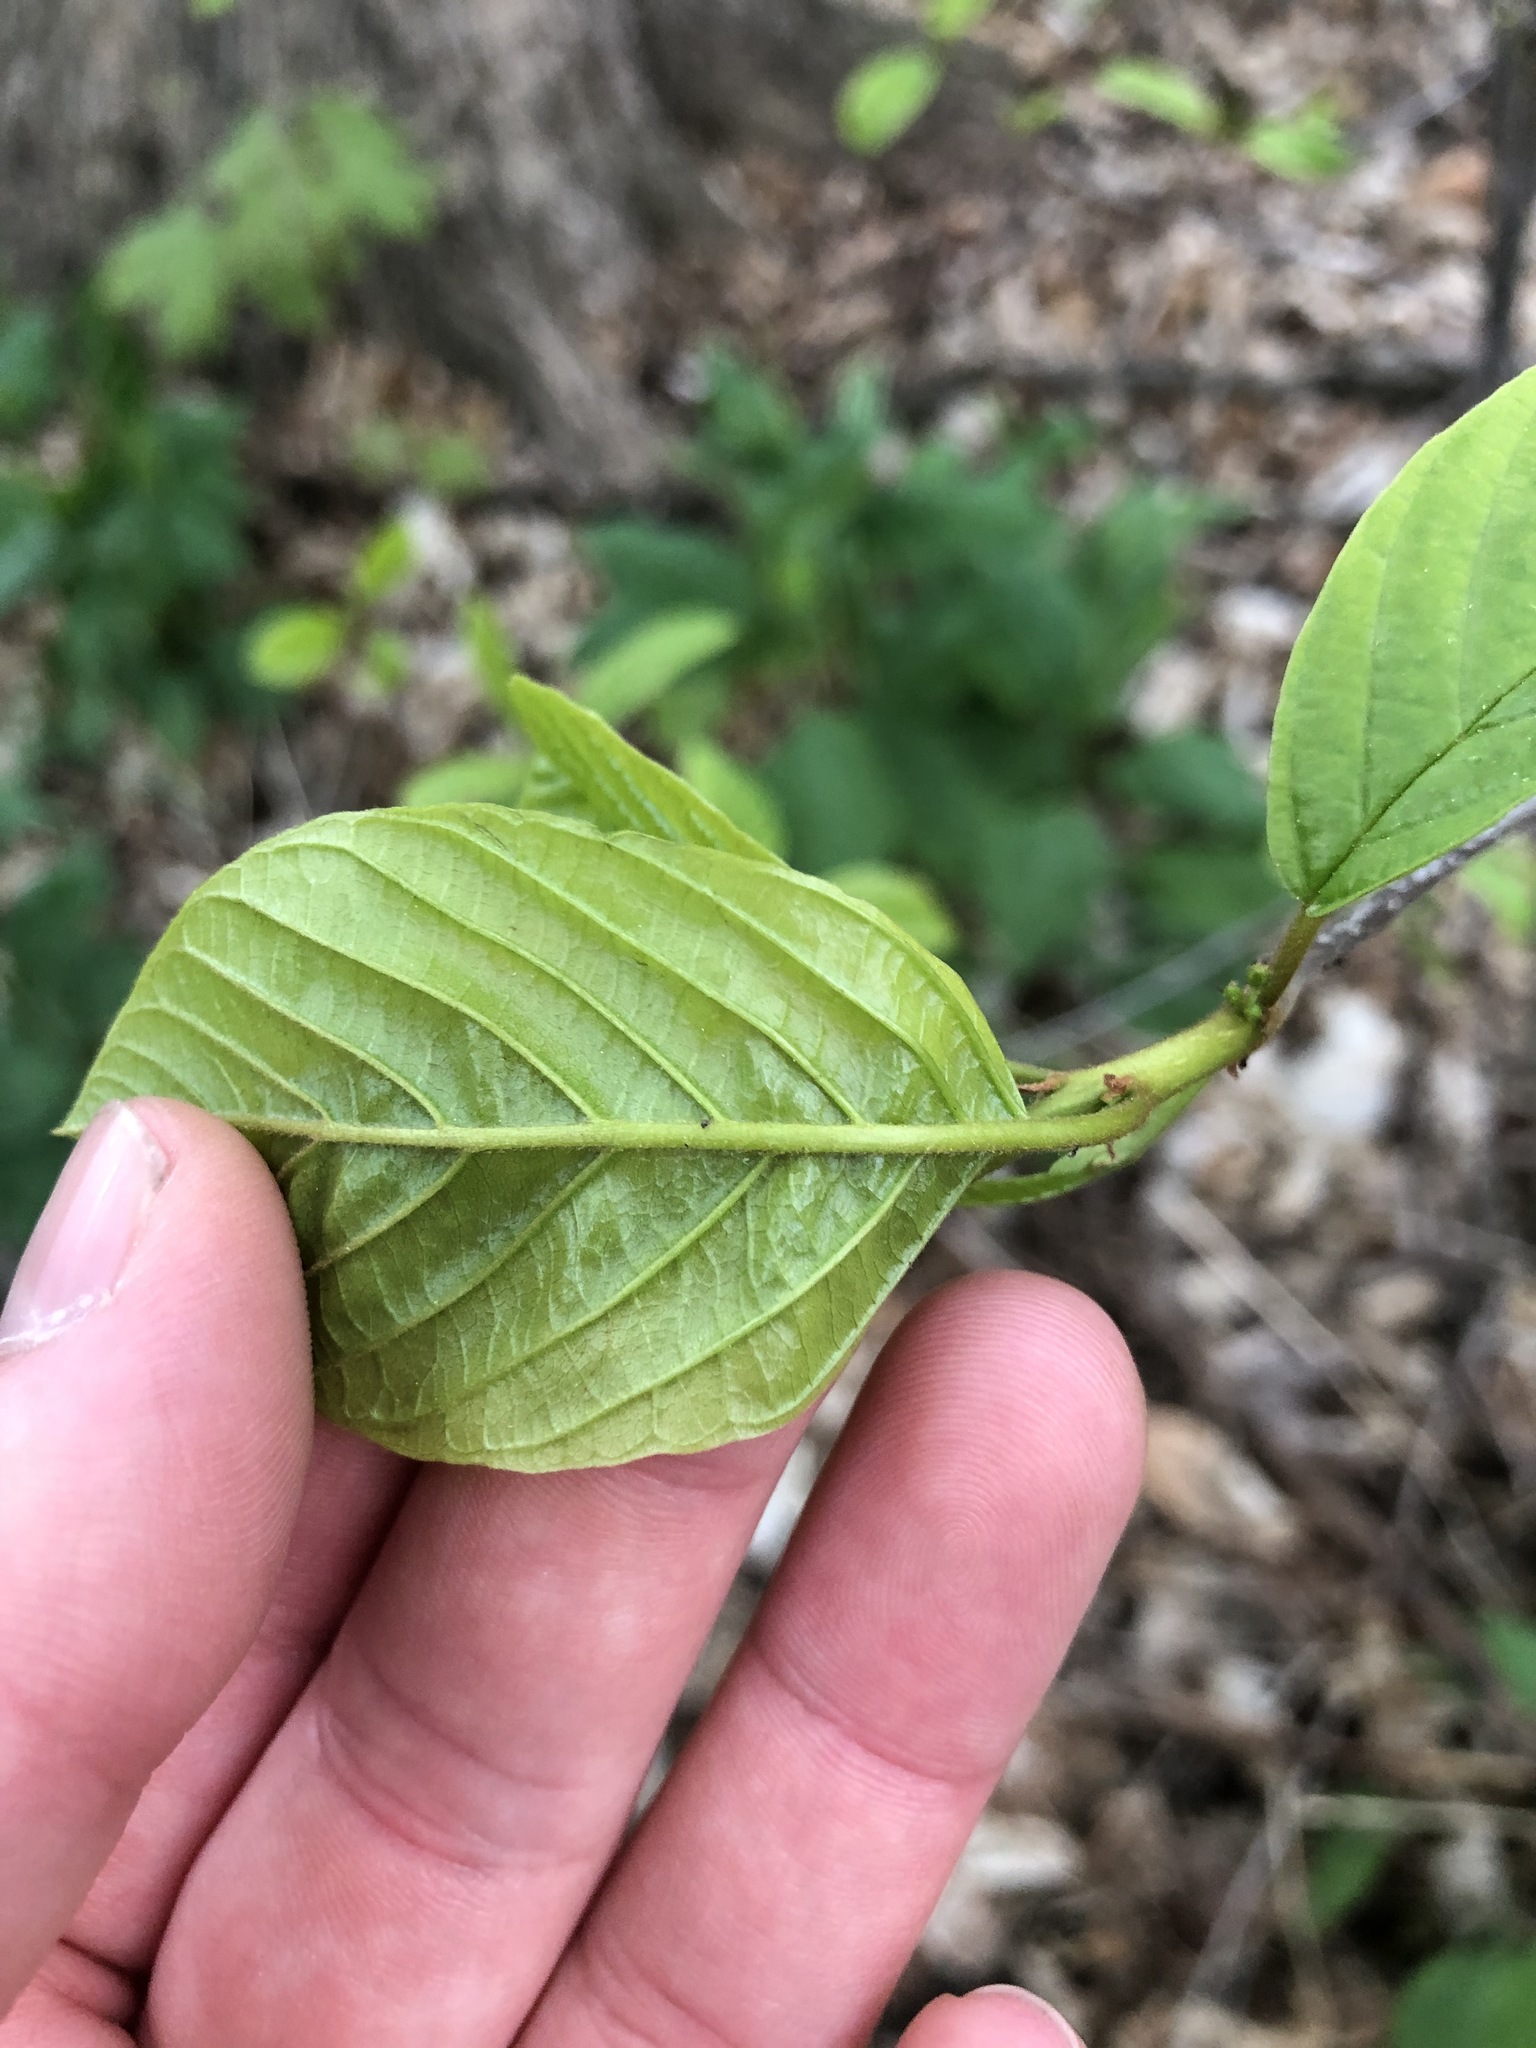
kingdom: Plantae
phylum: Tracheophyta
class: Magnoliopsida
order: Rosales
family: Rhamnaceae
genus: Frangula
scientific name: Frangula alnus
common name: Alder buckthorn
